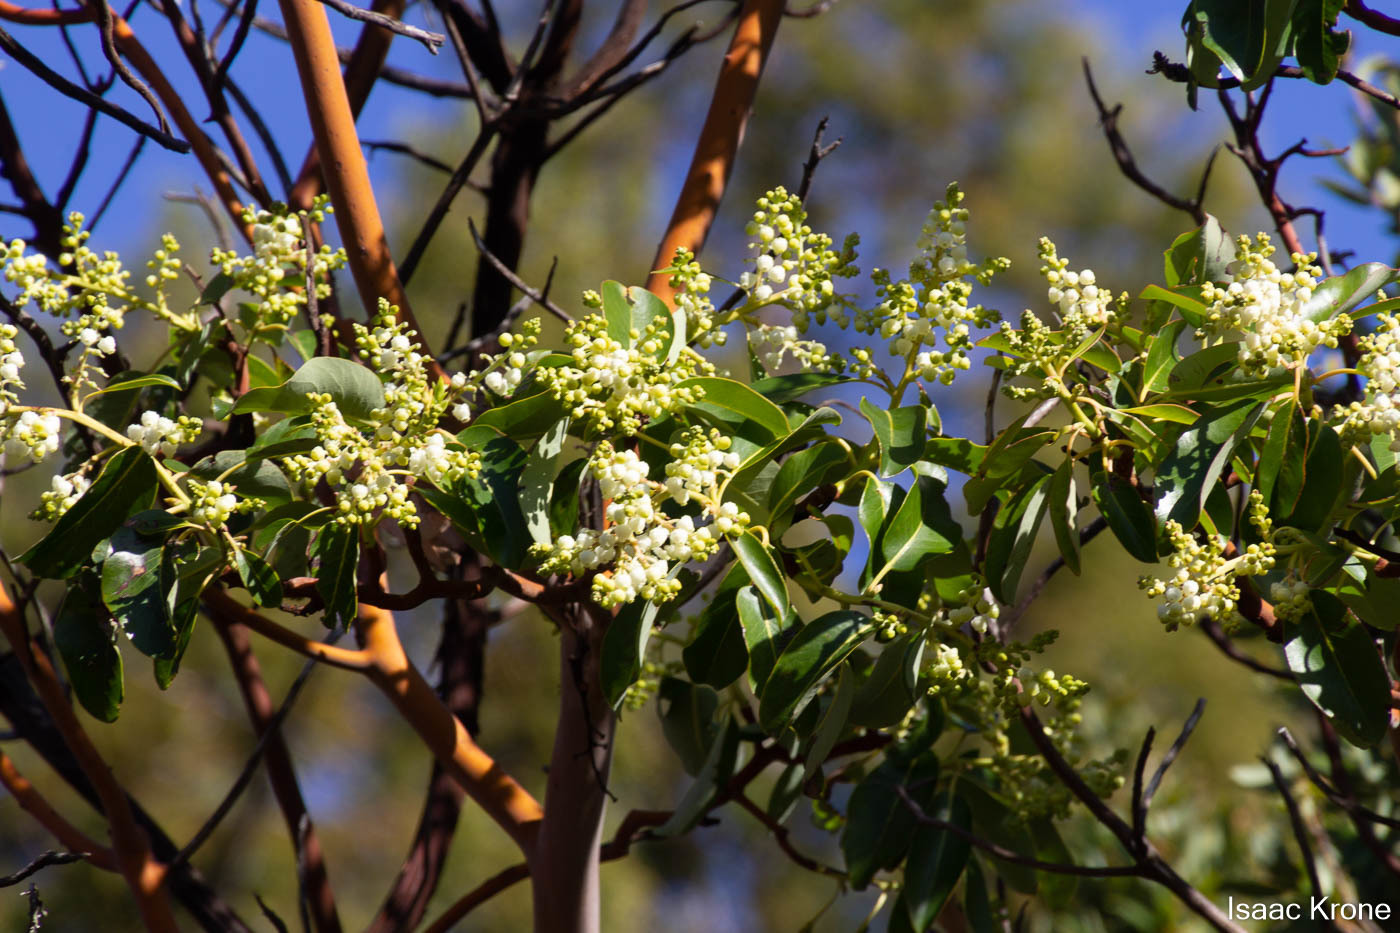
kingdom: Plantae
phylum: Tracheophyta
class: Magnoliopsida
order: Ericales
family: Ericaceae
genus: Arbutus
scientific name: Arbutus menziesii
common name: Pacific madrone
